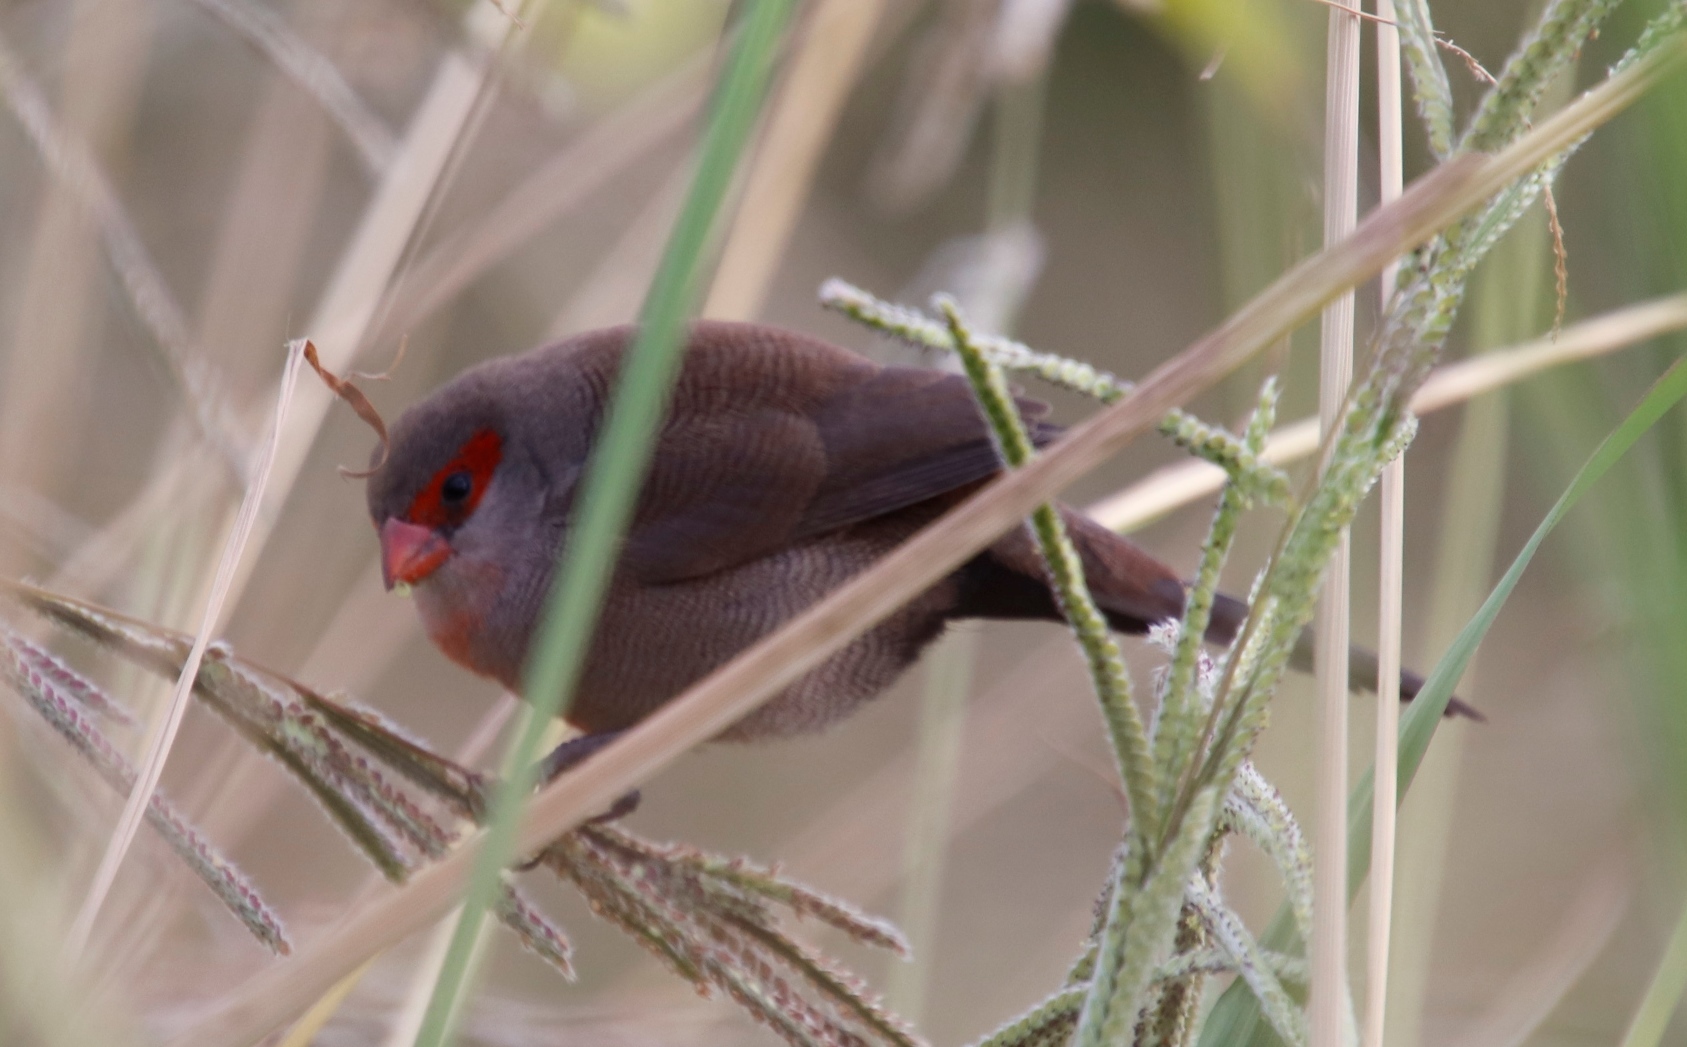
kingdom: Animalia
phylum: Chordata
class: Aves
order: Passeriformes
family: Estrildidae
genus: Estrilda
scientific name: Estrilda astrild
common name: Common waxbill
